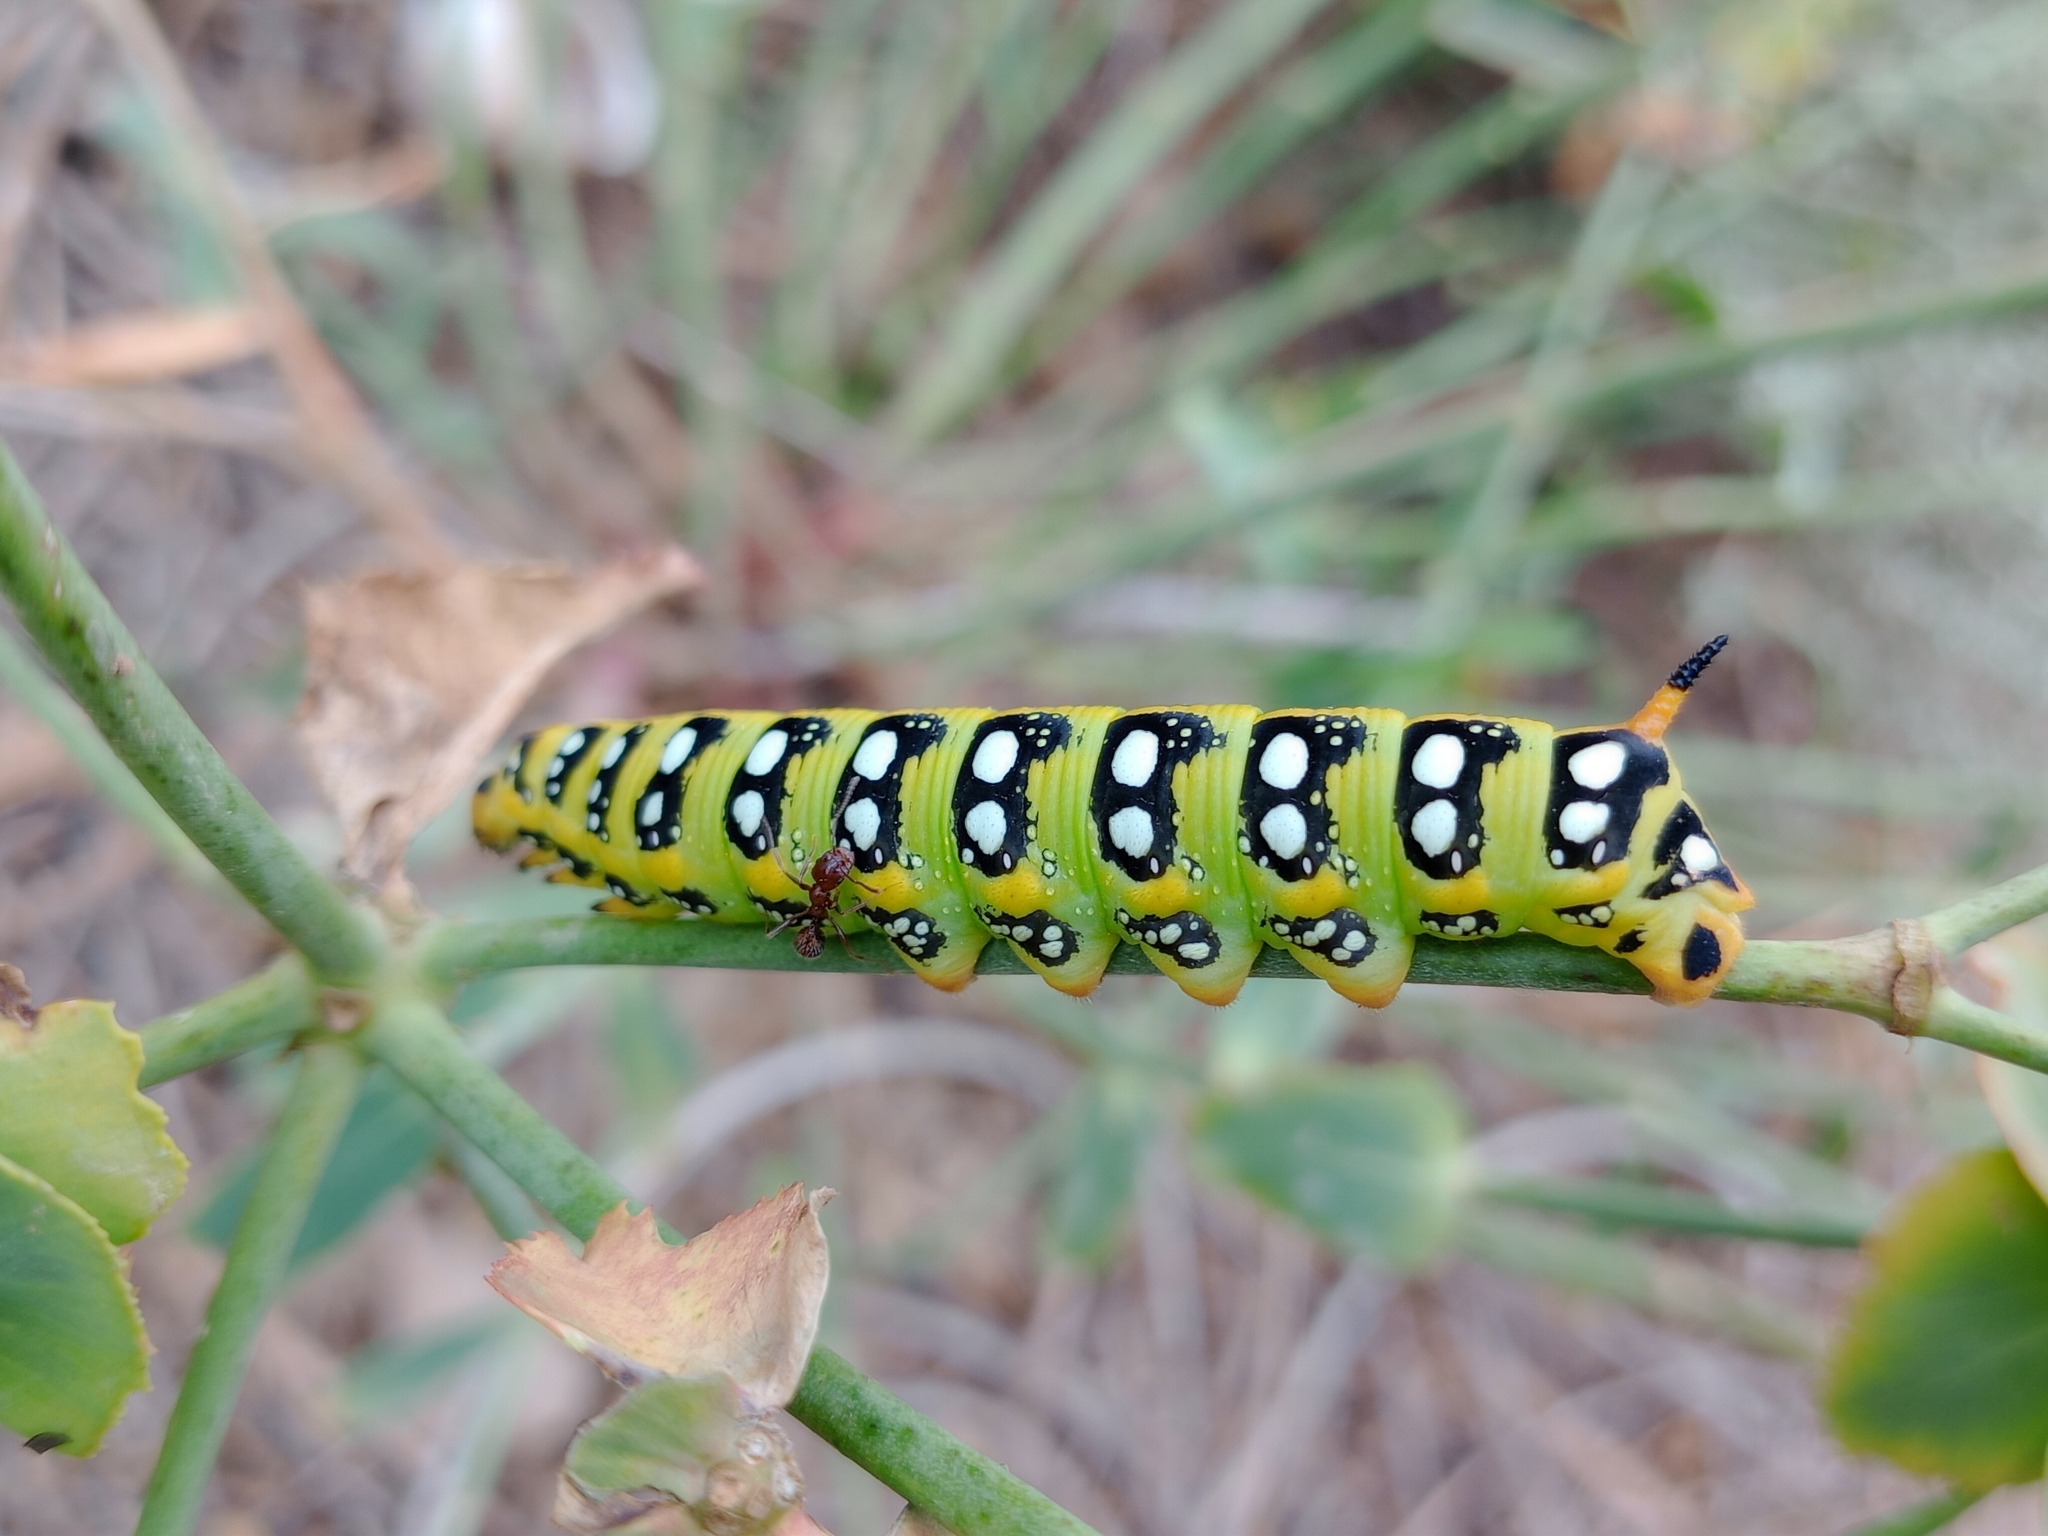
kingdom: Animalia
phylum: Arthropoda
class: Insecta
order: Lepidoptera
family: Sphingidae
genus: Hyles
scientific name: Hyles euphorbiae
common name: Spurge hawk-moth
